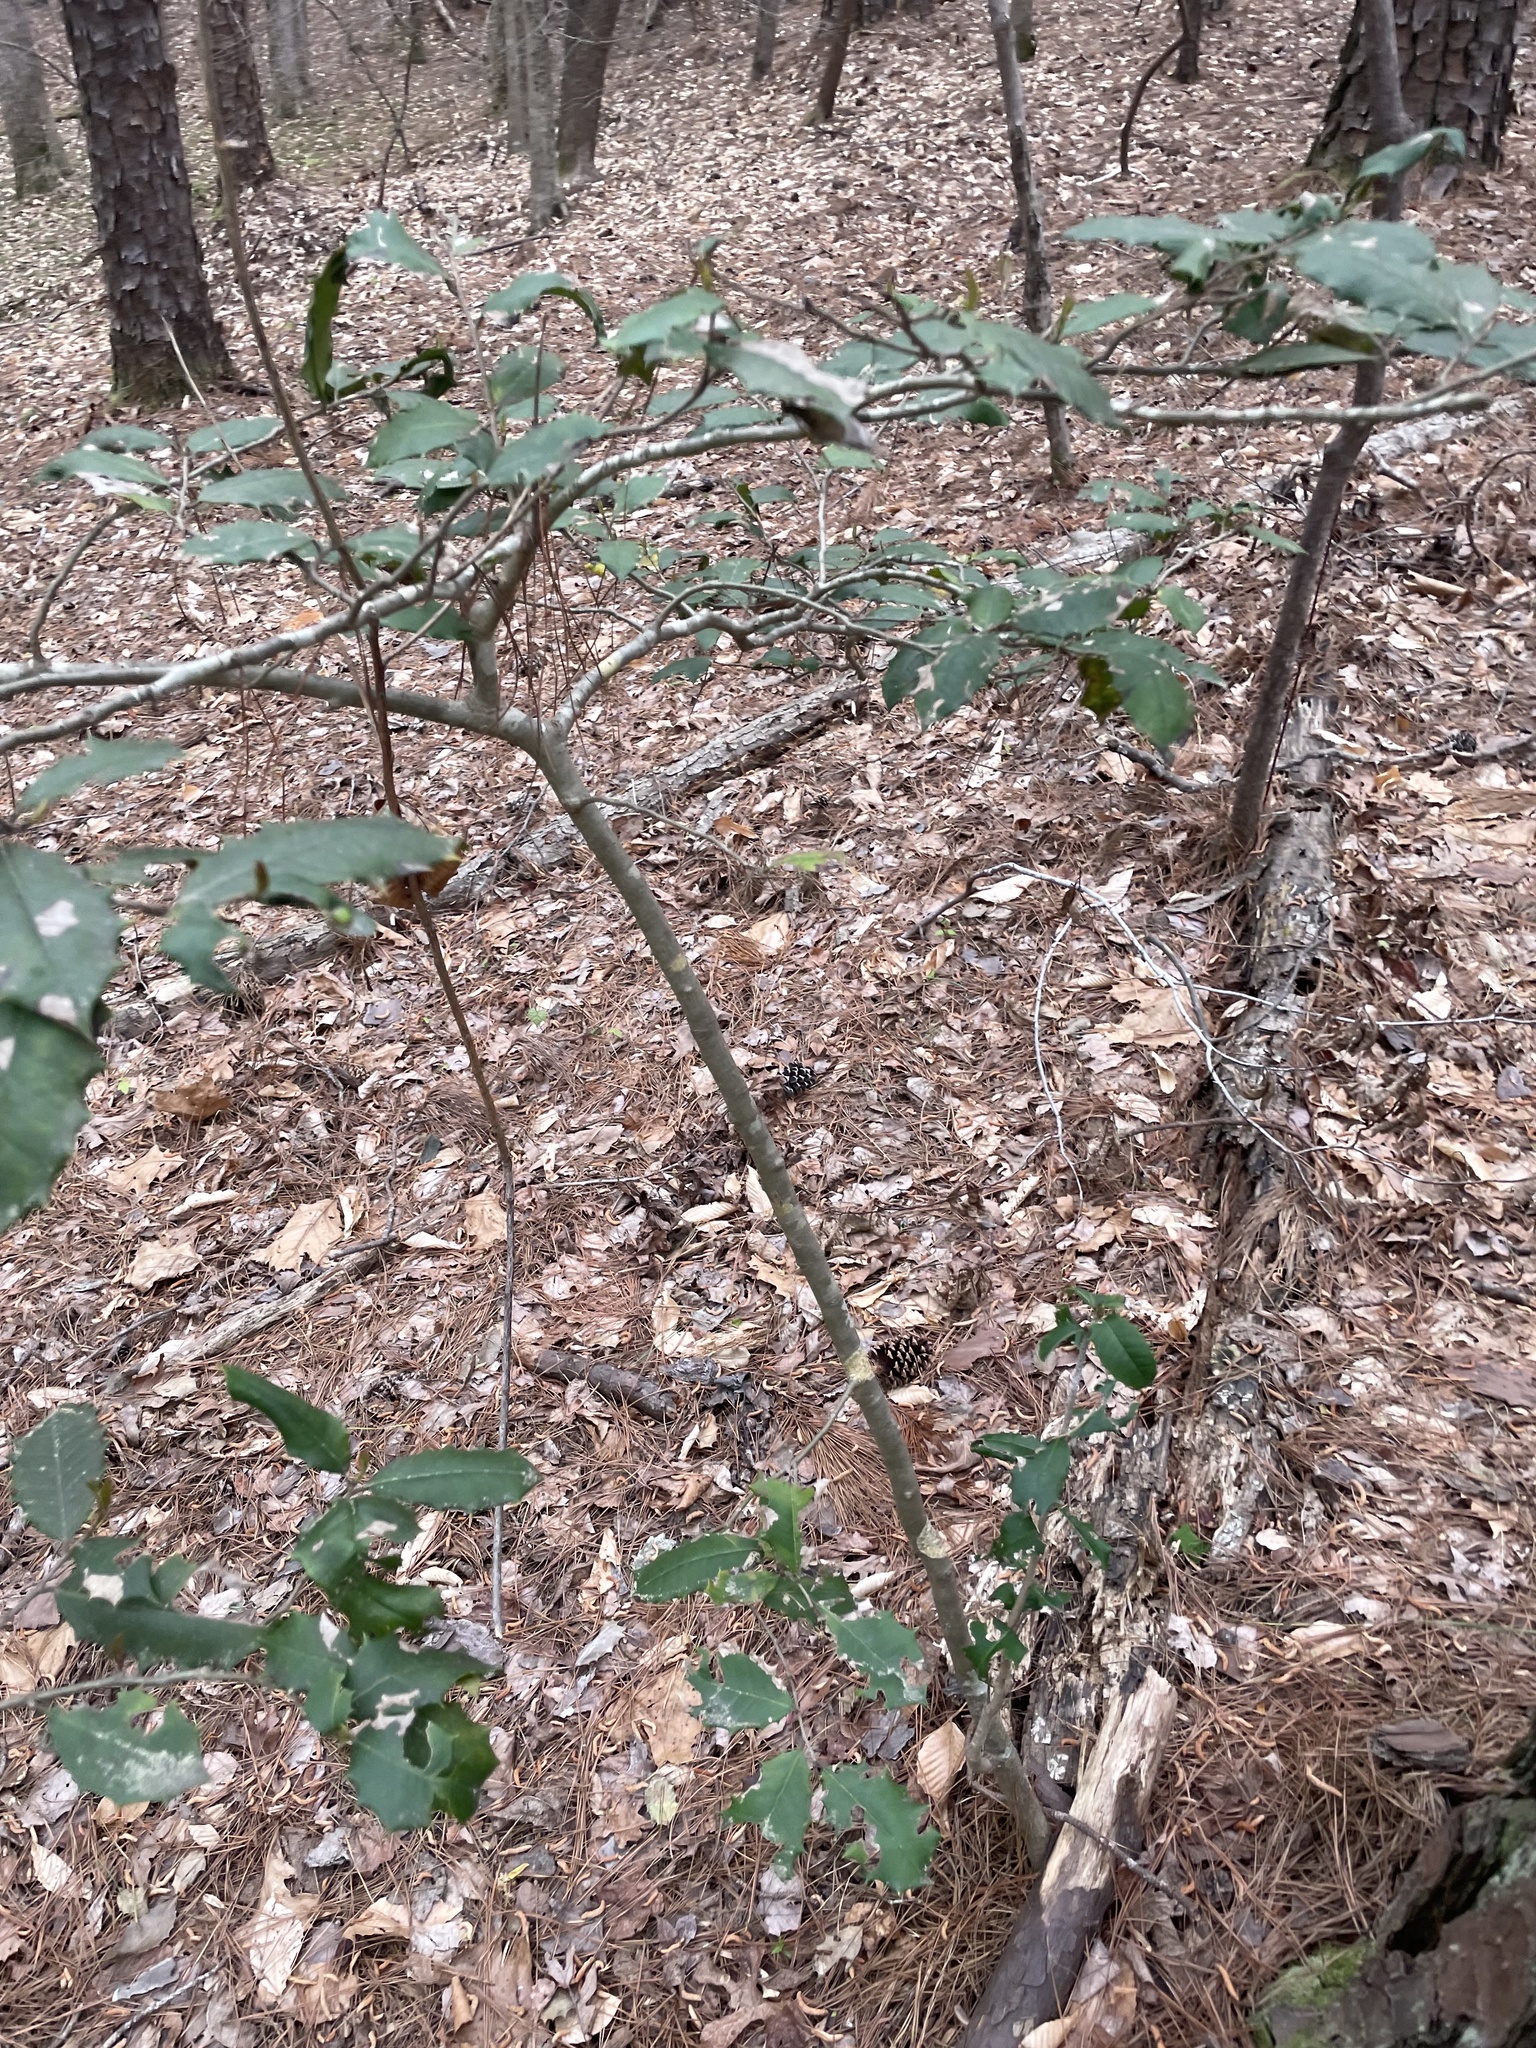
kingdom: Plantae
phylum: Tracheophyta
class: Magnoliopsida
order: Aquifoliales
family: Aquifoliaceae
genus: Ilex
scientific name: Ilex opaca
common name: American holly
